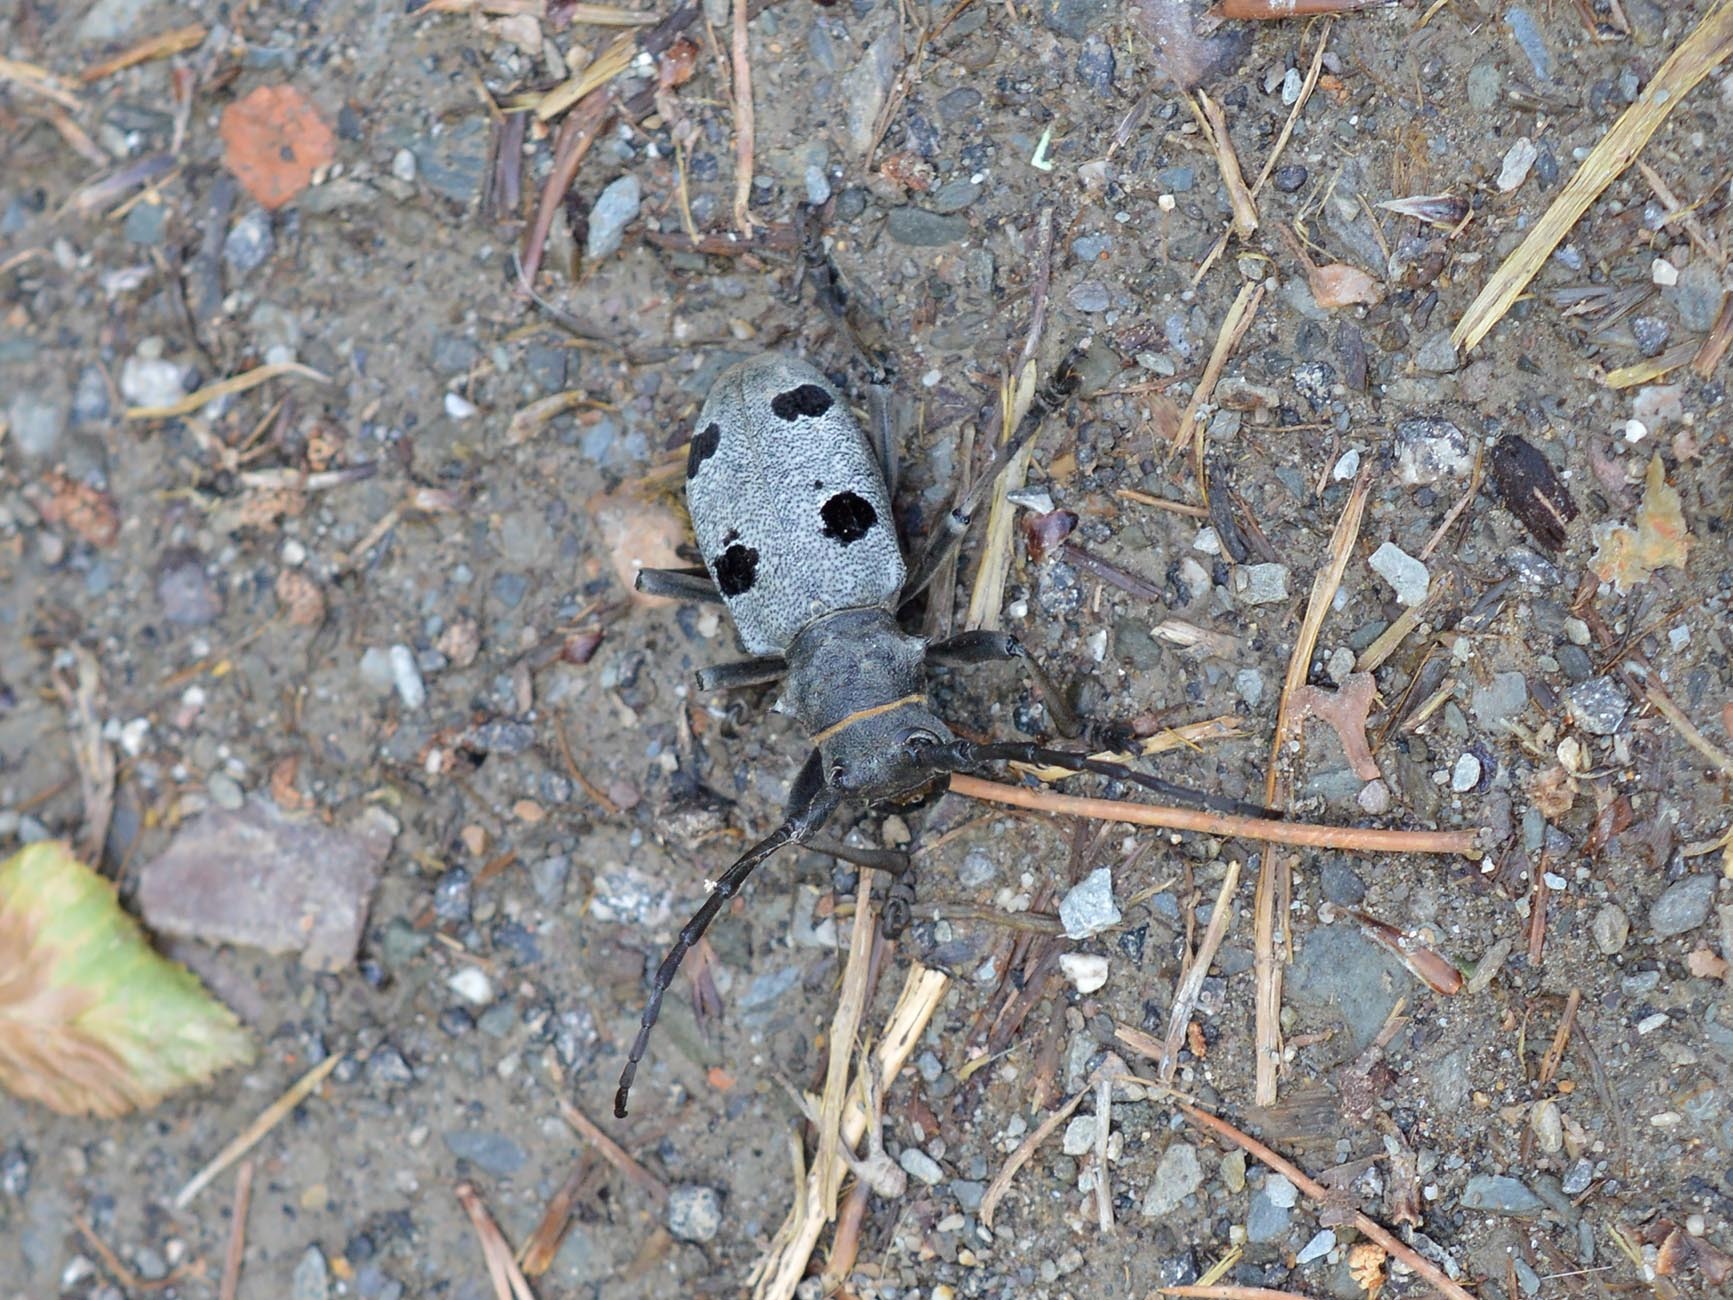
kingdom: Animalia
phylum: Arthropoda
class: Insecta
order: Coleoptera
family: Cerambycidae
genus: Morimus
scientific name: Morimus funereus
